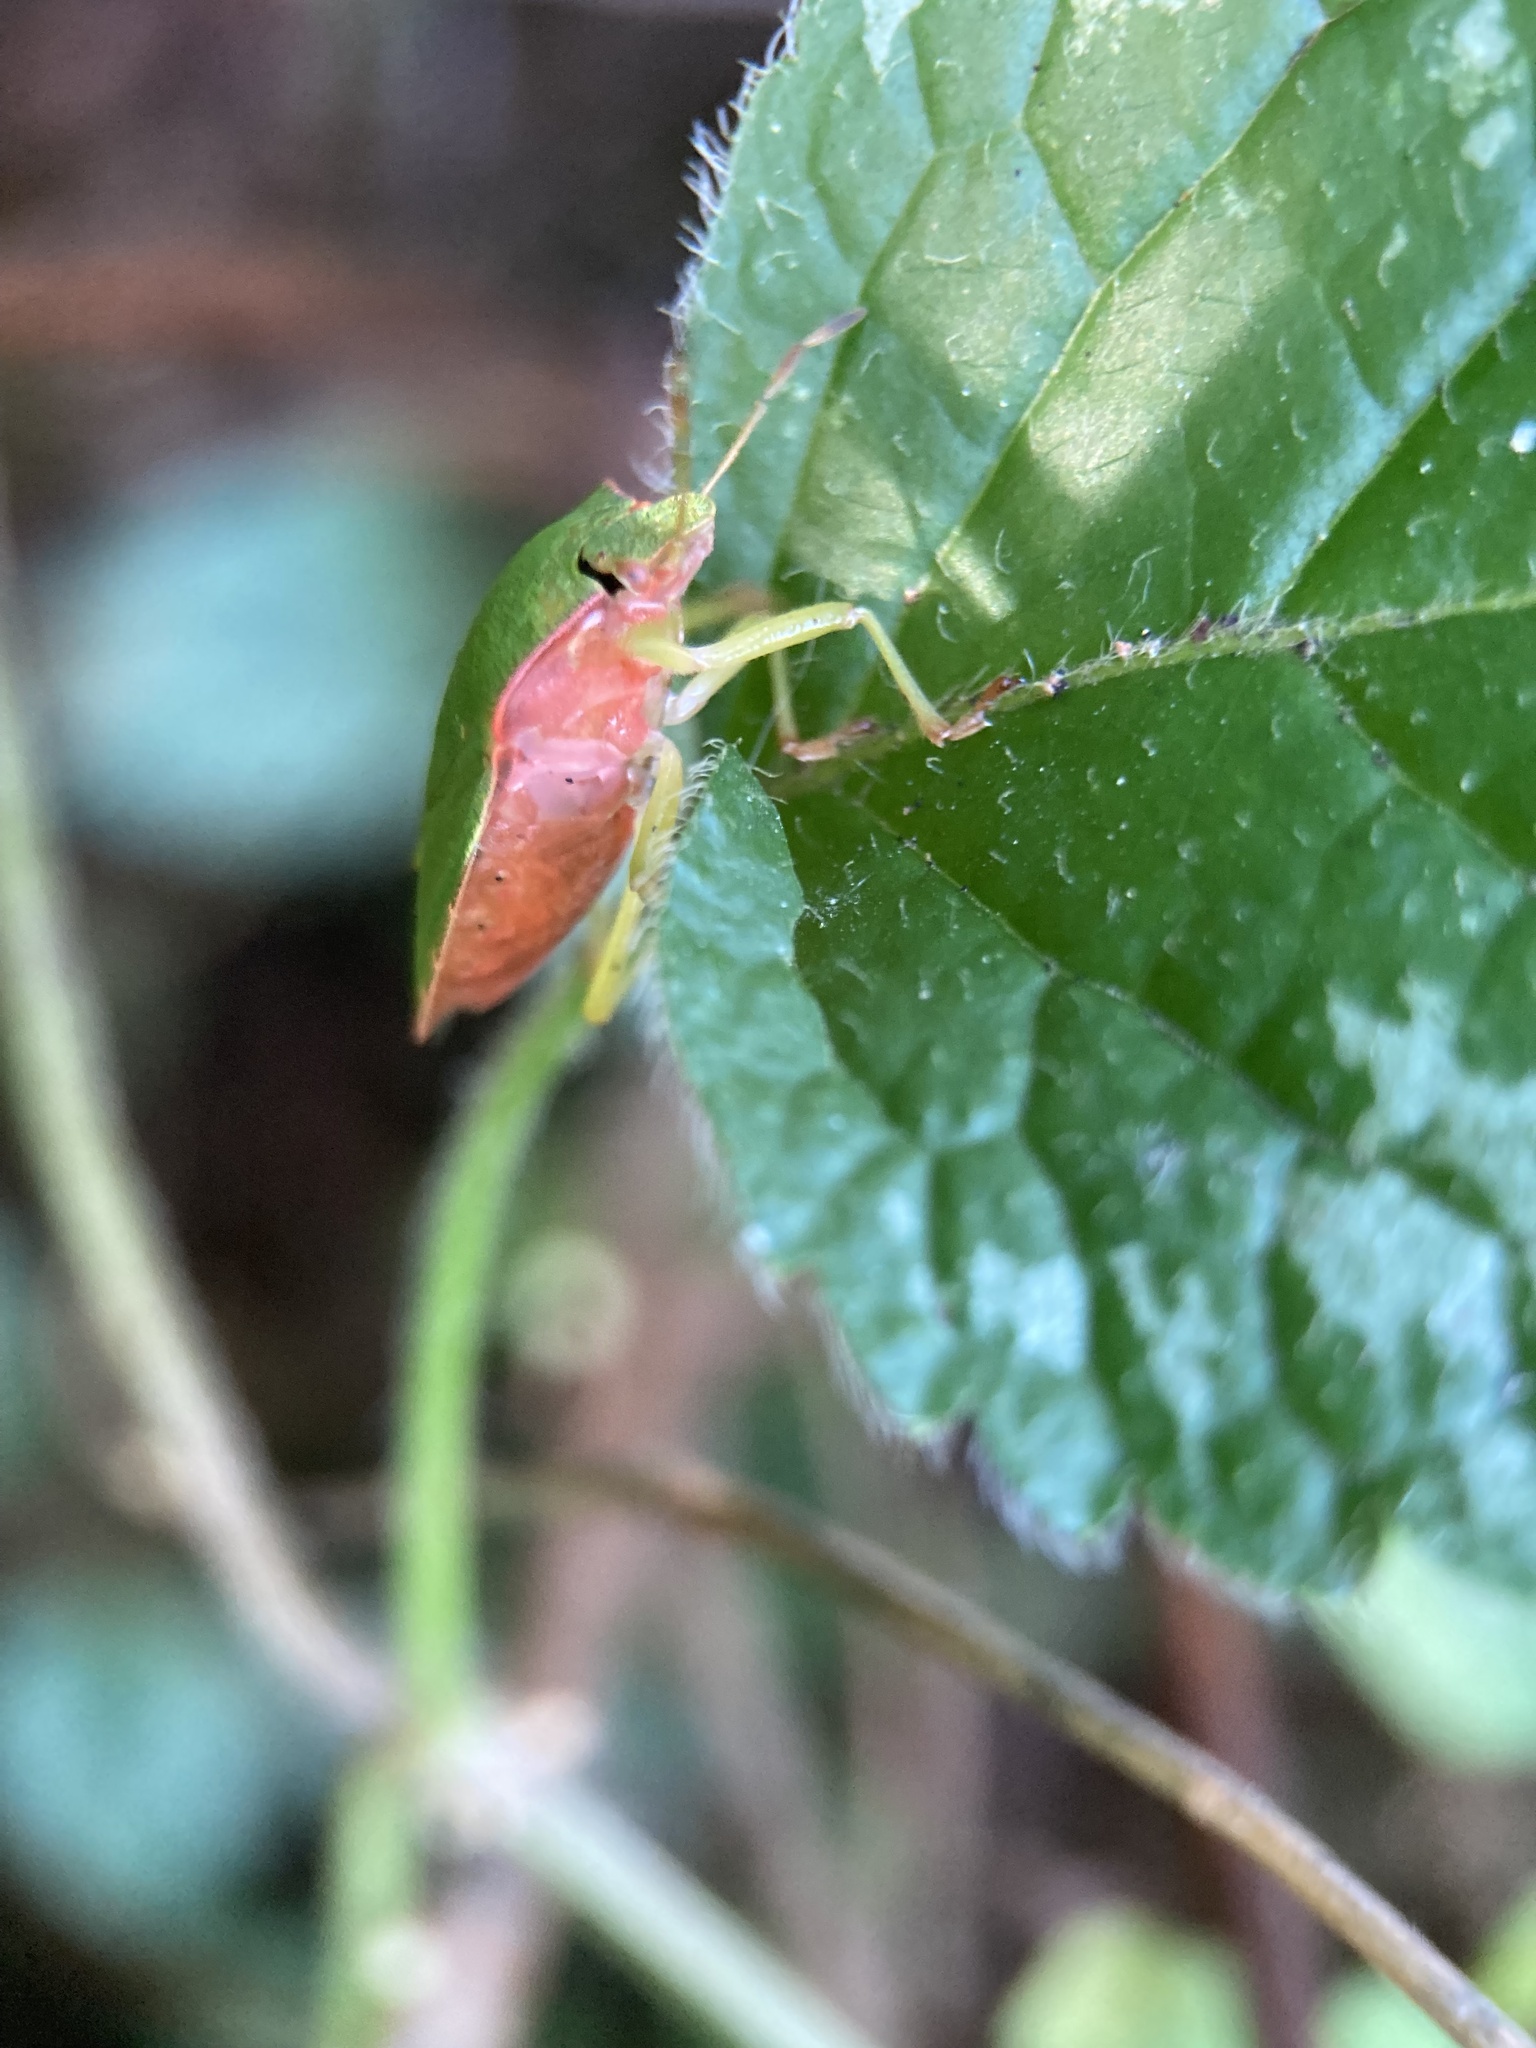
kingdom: Animalia
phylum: Arthropoda
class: Insecta
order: Hemiptera
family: Pentatomidae
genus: Palomena
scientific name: Palomena prasina
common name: Green shieldbug
